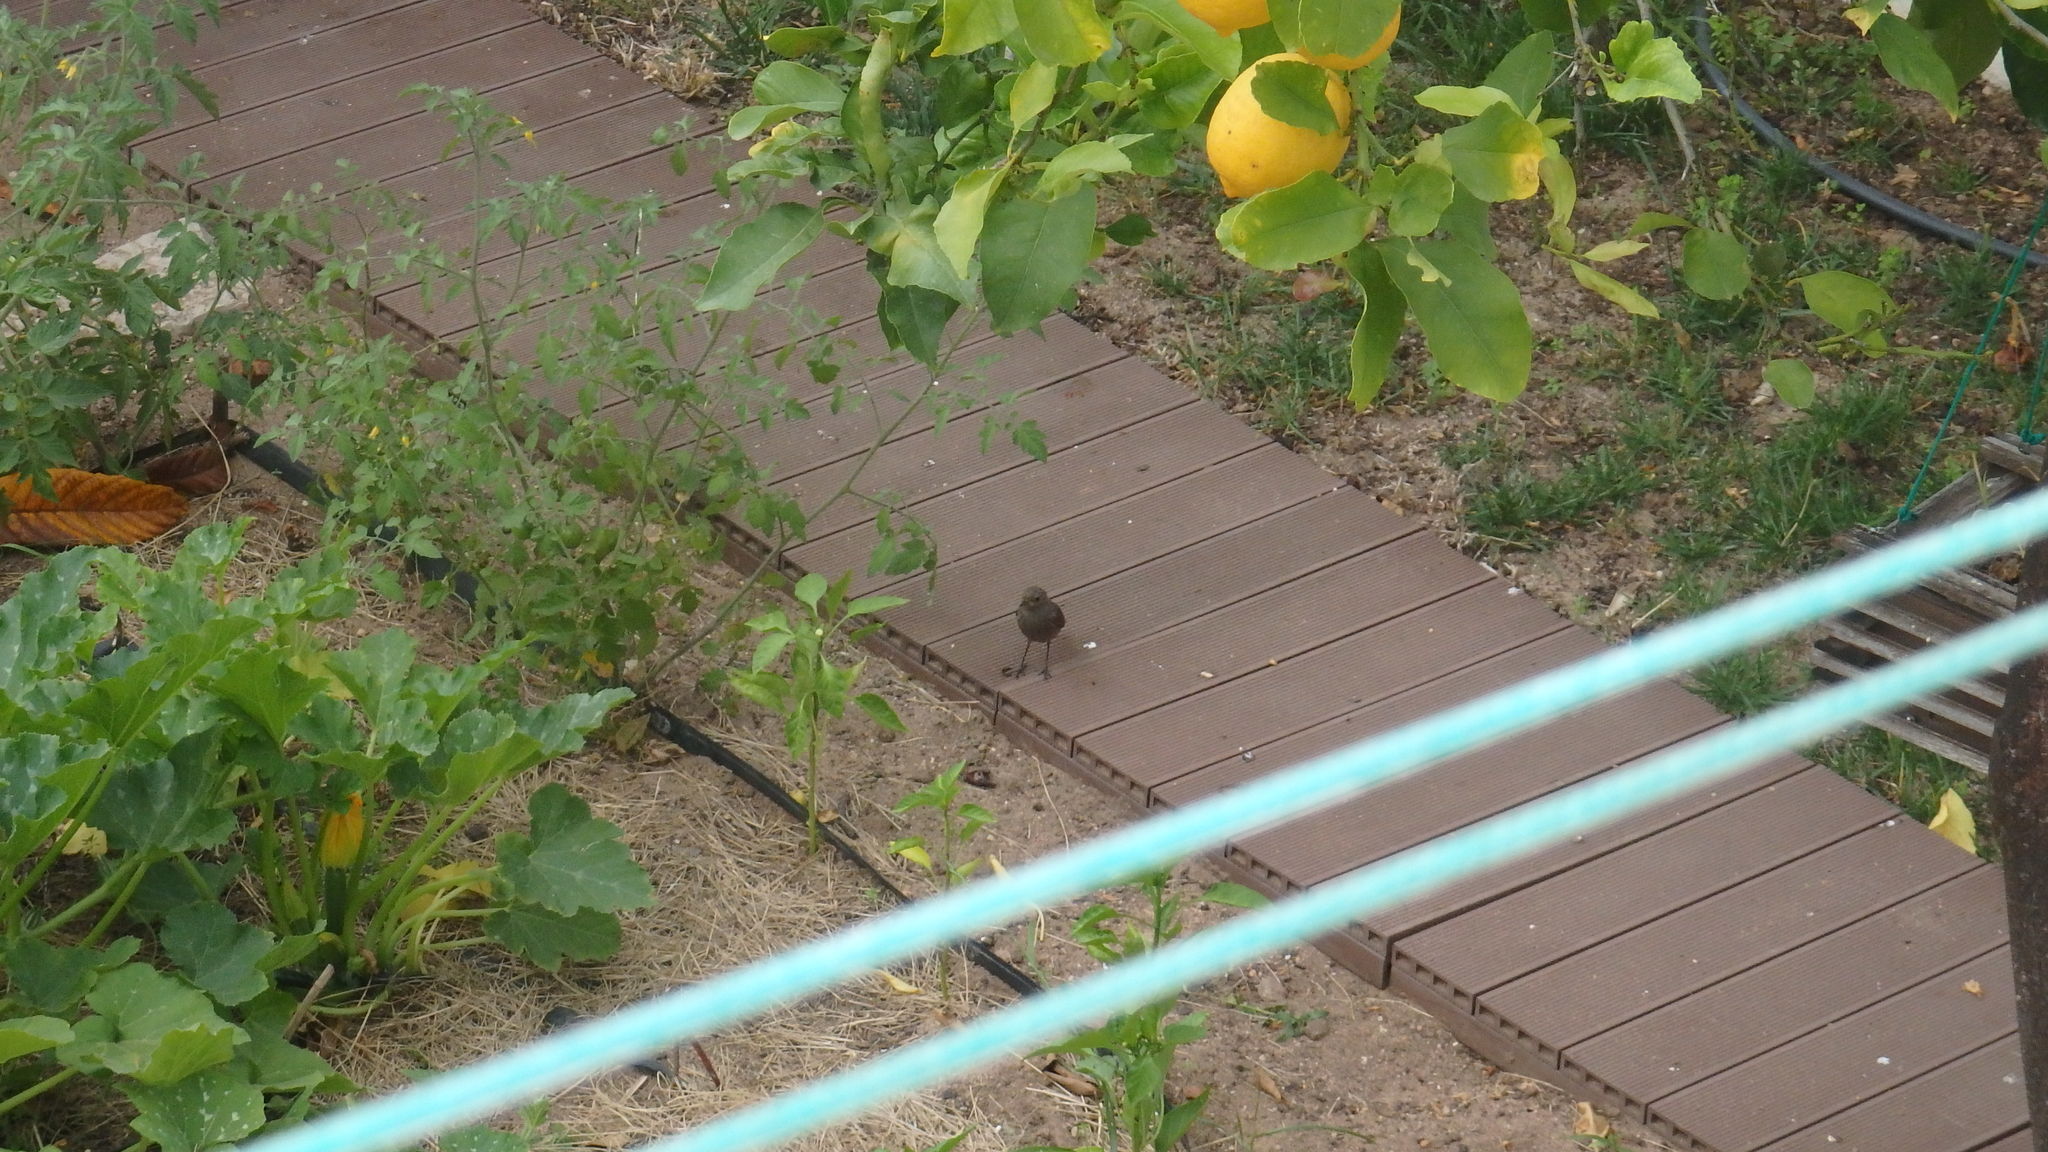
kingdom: Animalia
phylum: Chordata
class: Aves
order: Passeriformes
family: Muscicapidae
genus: Phoenicurus
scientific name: Phoenicurus ochruros
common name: Black redstart
